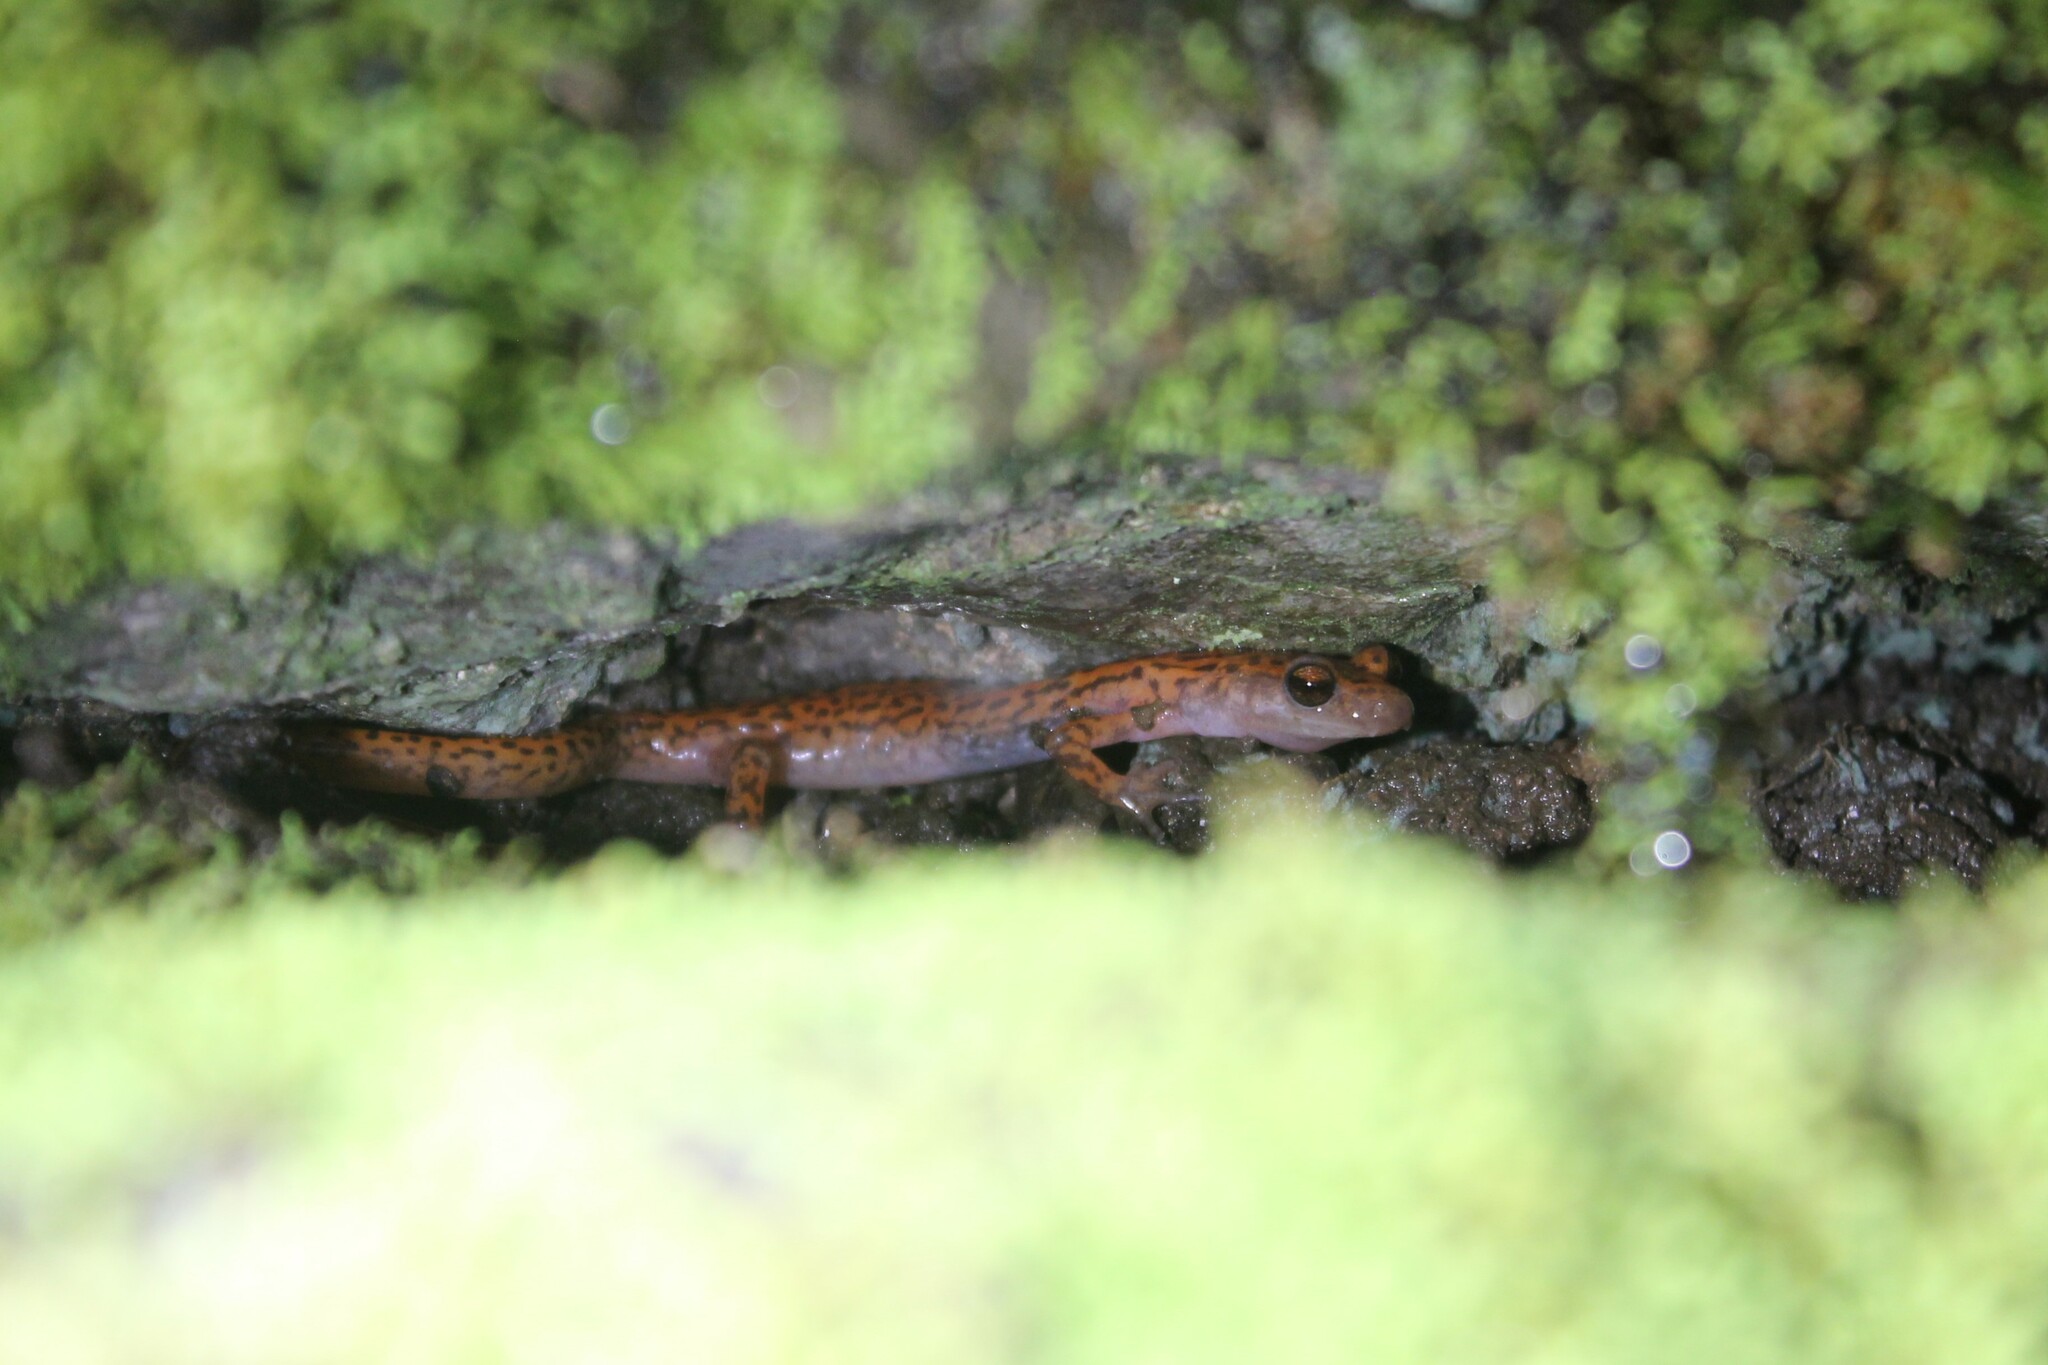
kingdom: Animalia
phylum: Chordata
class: Amphibia
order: Caudata
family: Plethodontidae
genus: Eurycea
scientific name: Eurycea lucifuga
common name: Cave salamander
